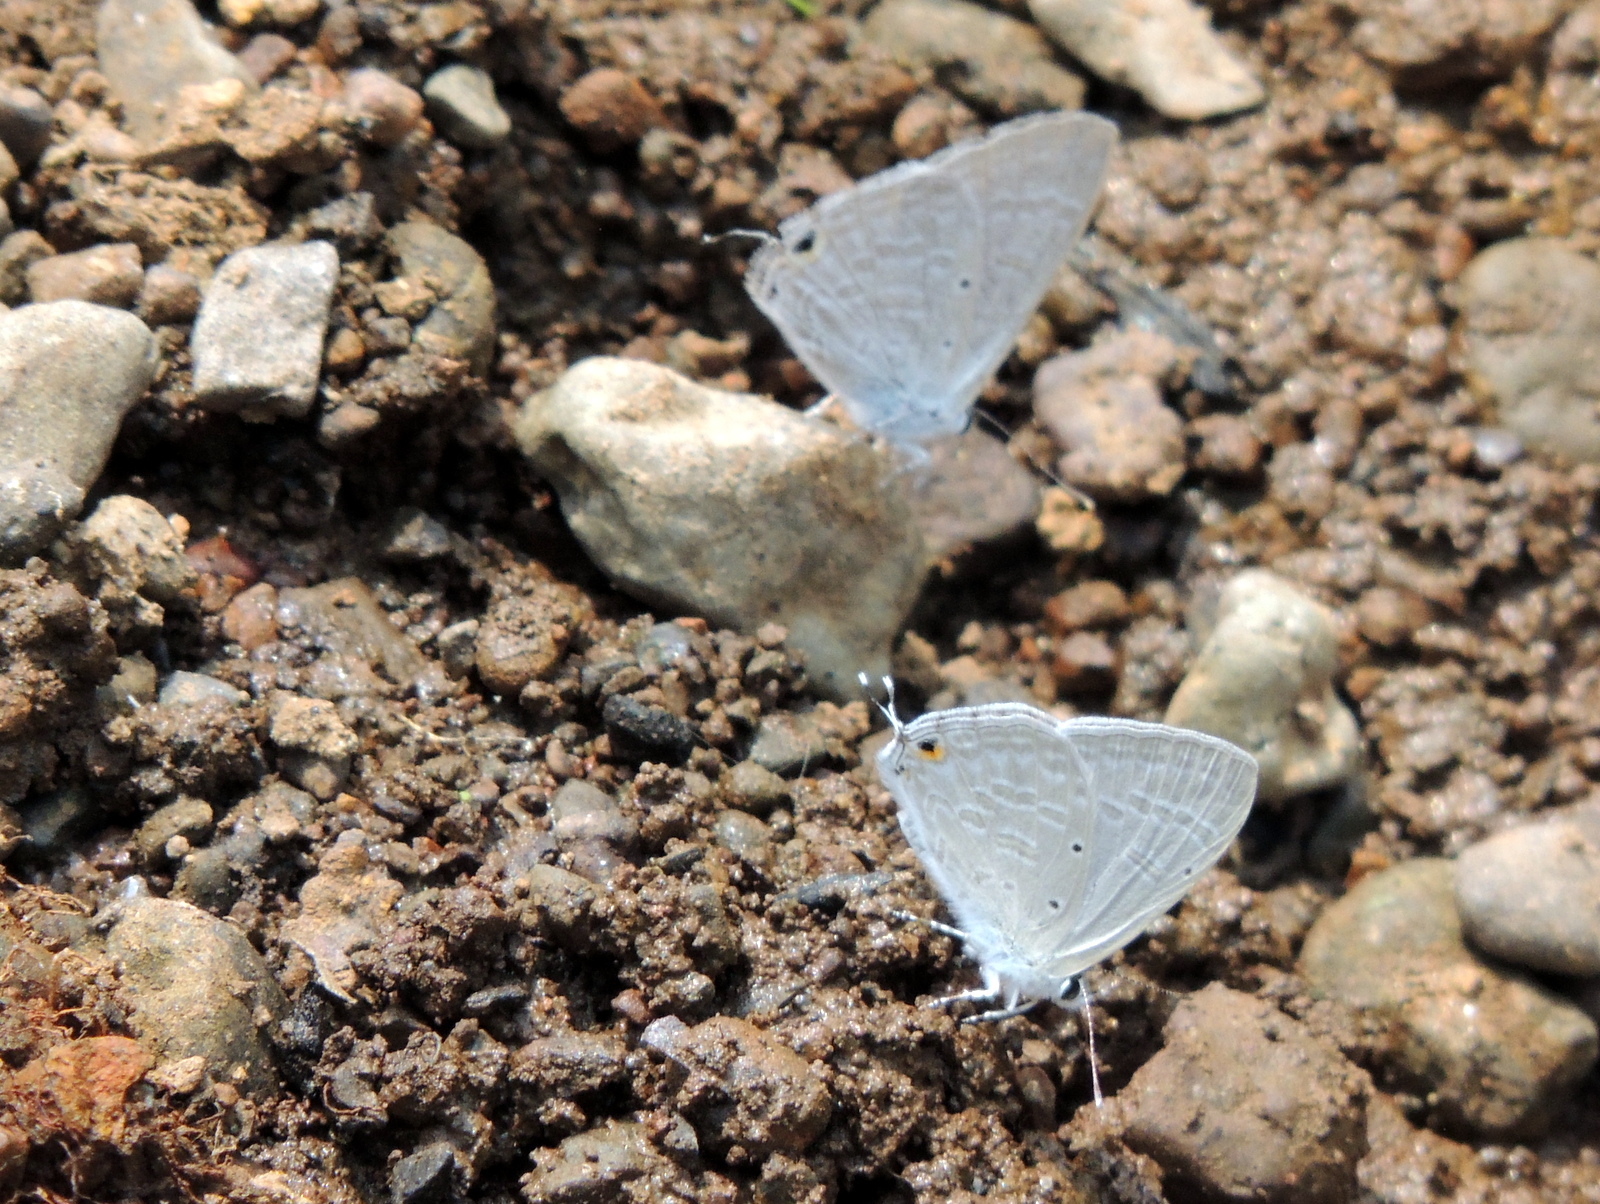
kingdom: Animalia
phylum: Arthropoda
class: Insecta
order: Lepidoptera
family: Lycaenidae
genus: Catochrysops
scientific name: Catochrysops strabo
